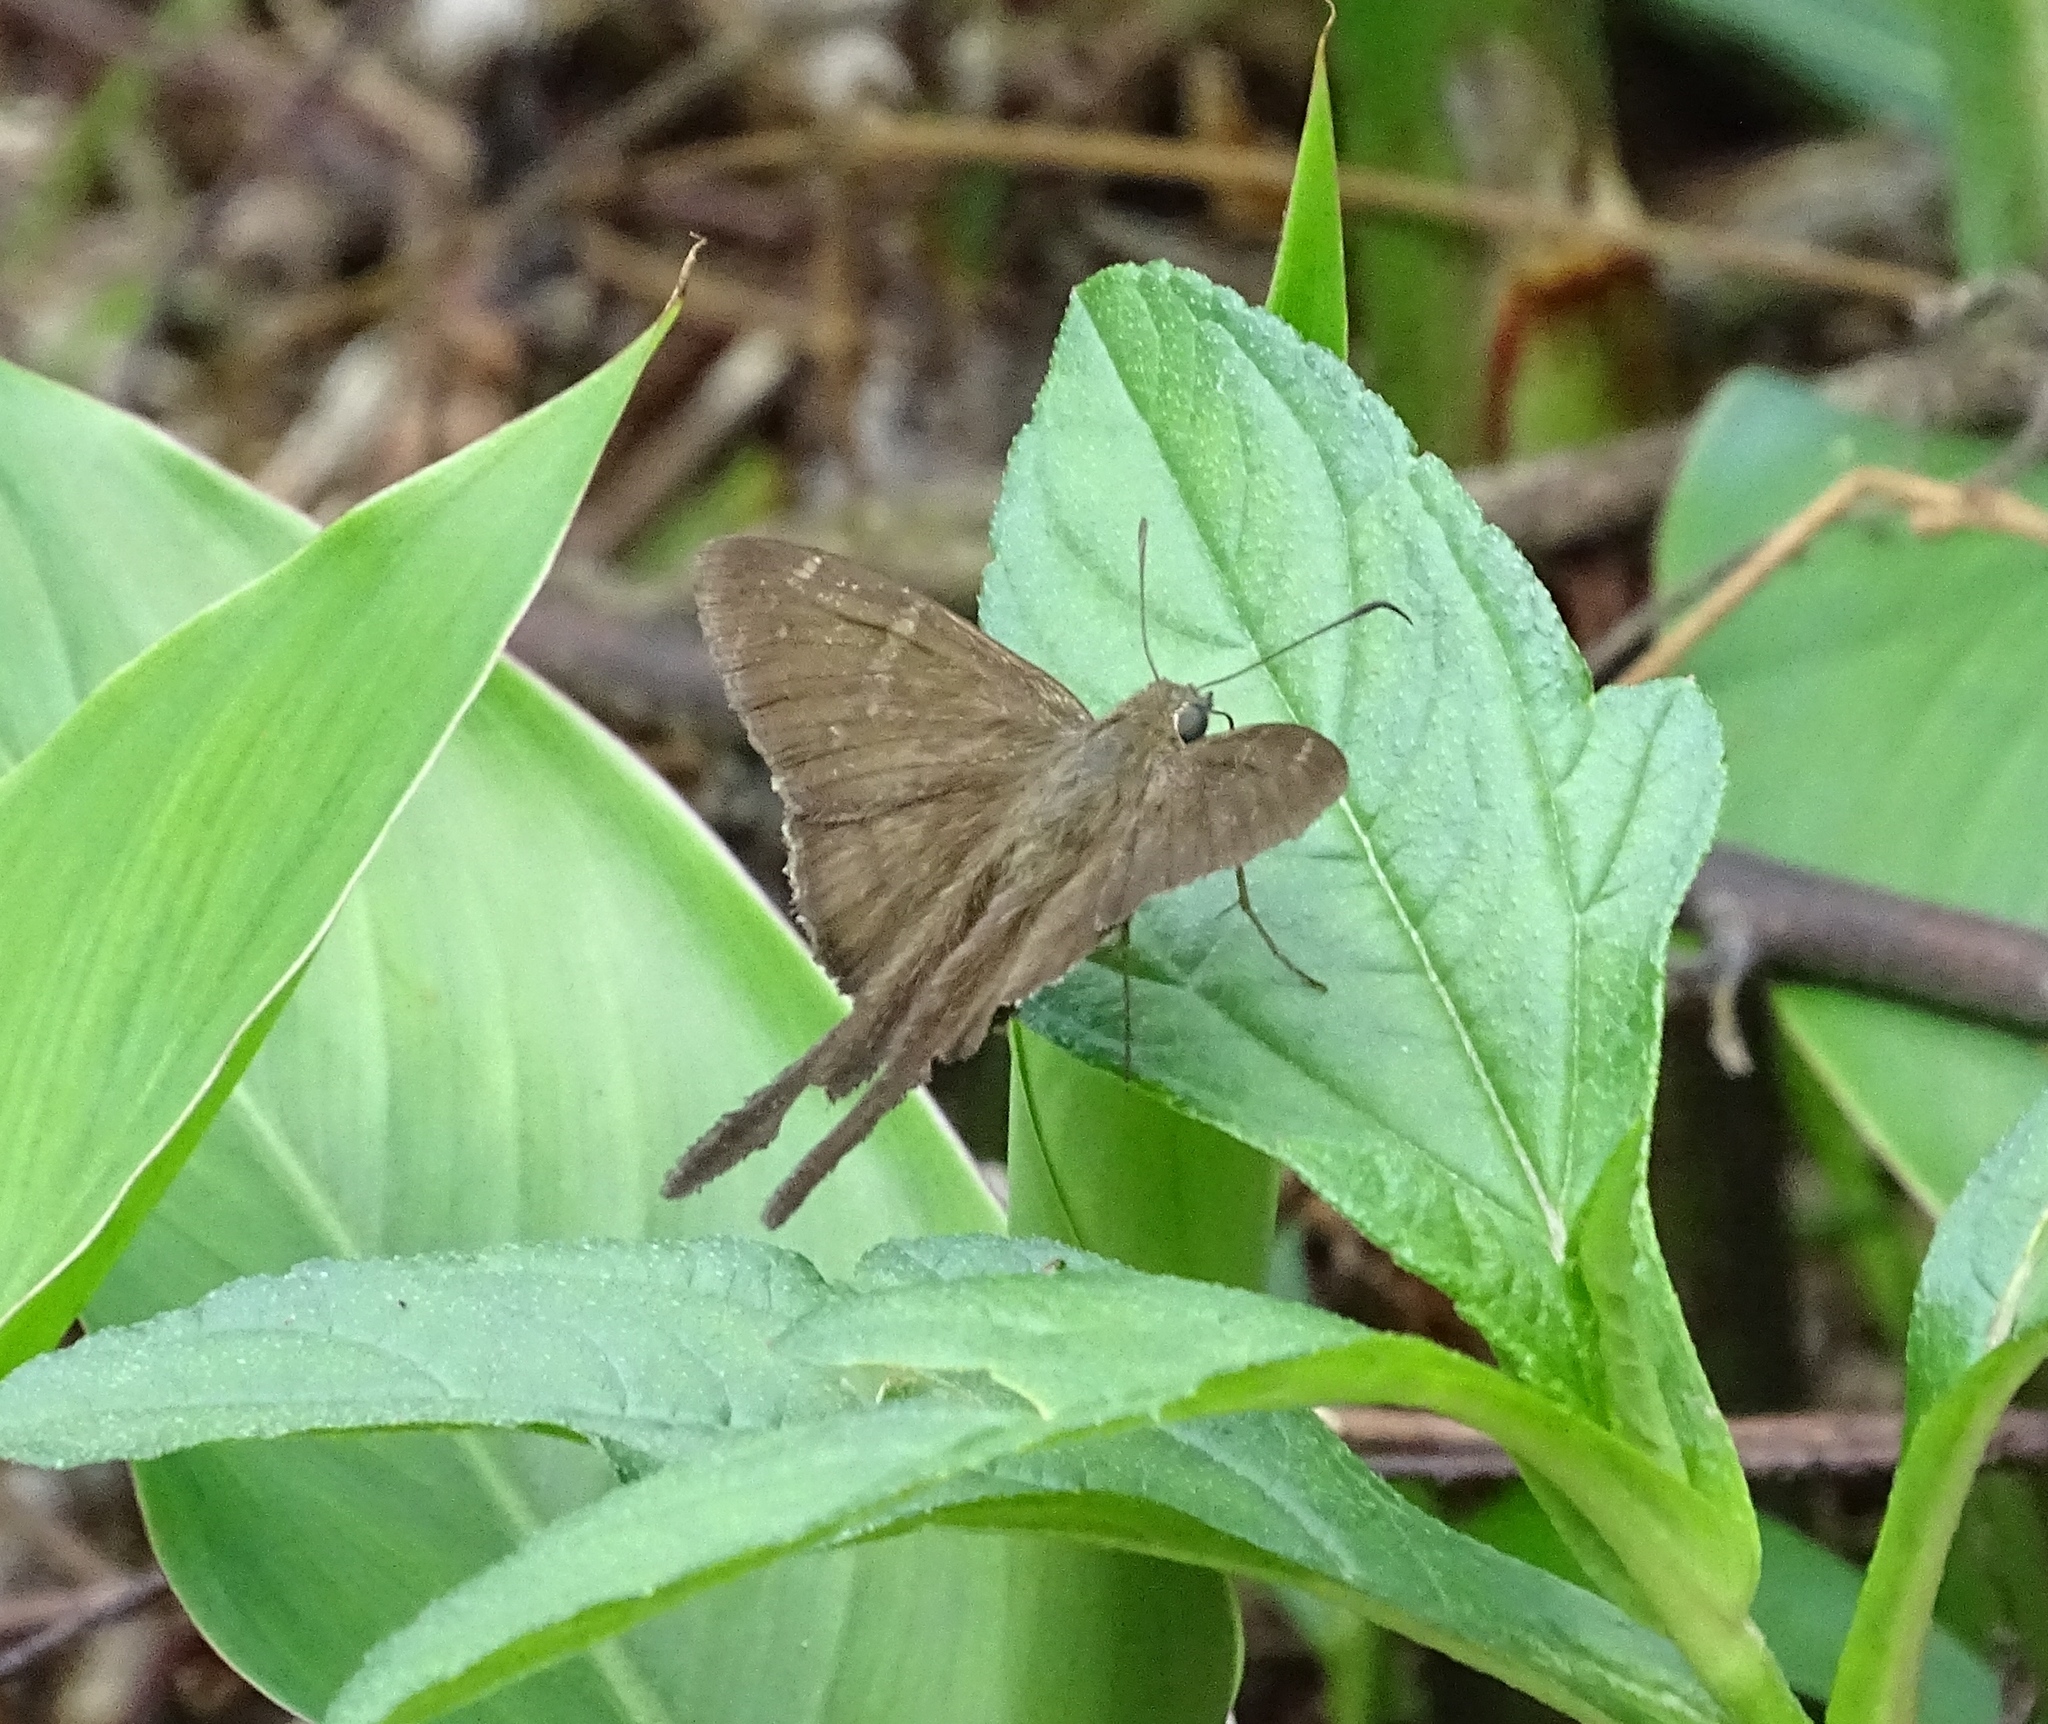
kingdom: Animalia
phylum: Arthropoda
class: Insecta
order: Lepidoptera
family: Hesperiidae
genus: Urbanus
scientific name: Urbanus procne
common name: Brown longtail
